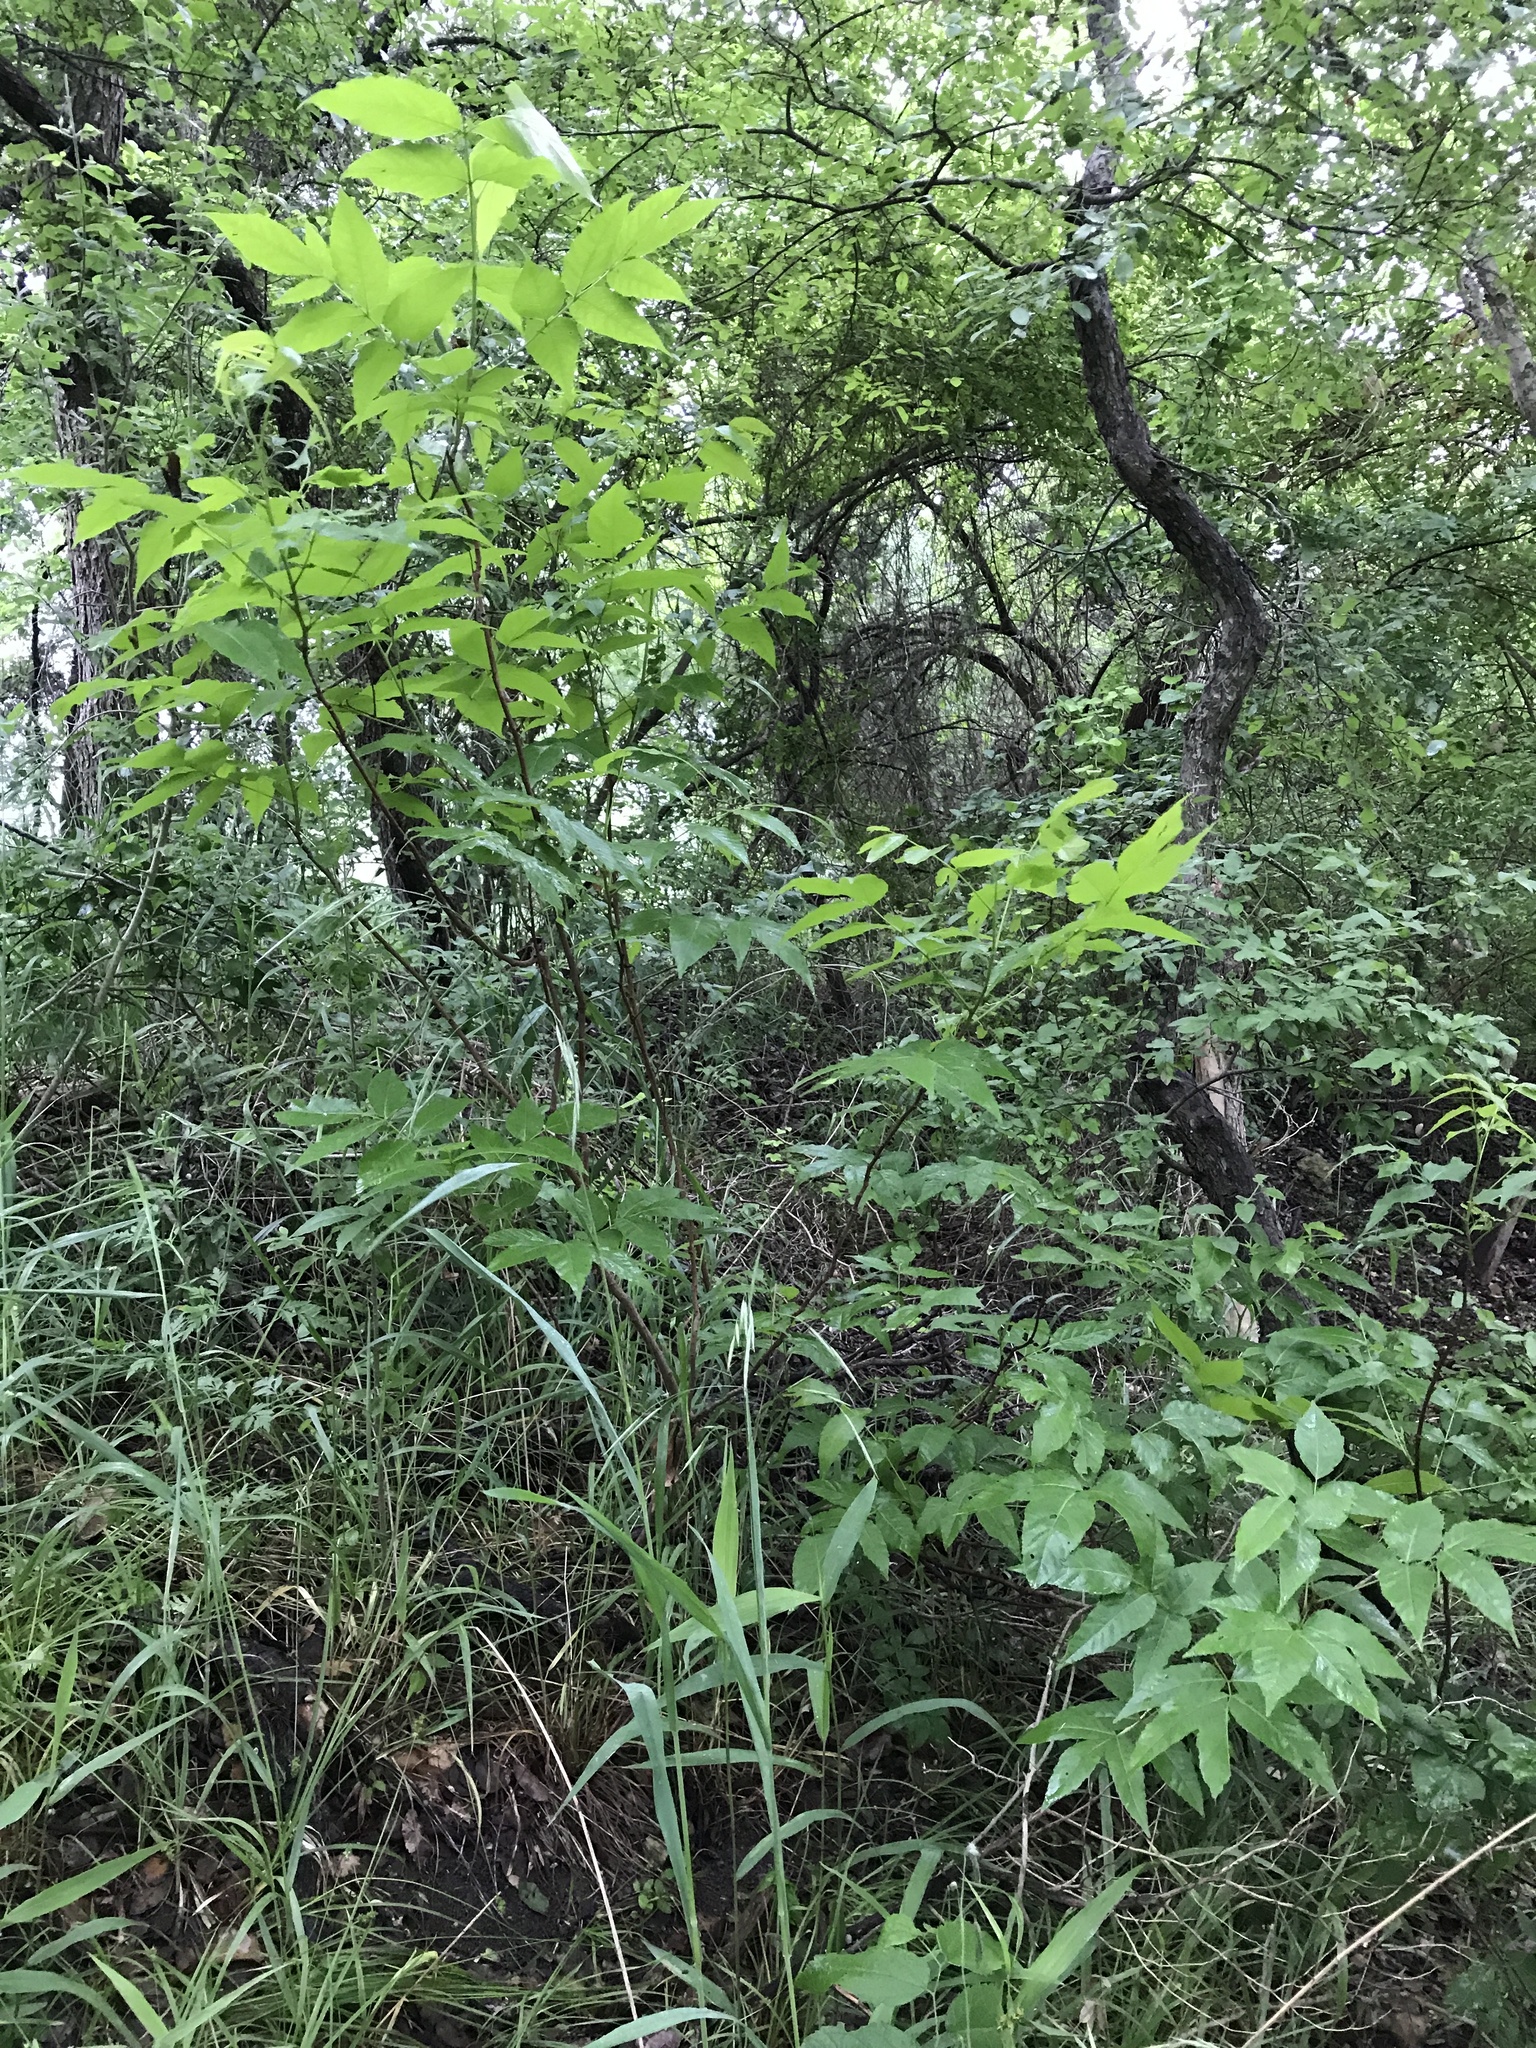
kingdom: Plantae
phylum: Tracheophyta
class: Magnoliopsida
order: Sapindales
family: Sapindaceae
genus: Ungnadia
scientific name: Ungnadia speciosa
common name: Texas-buckeye
